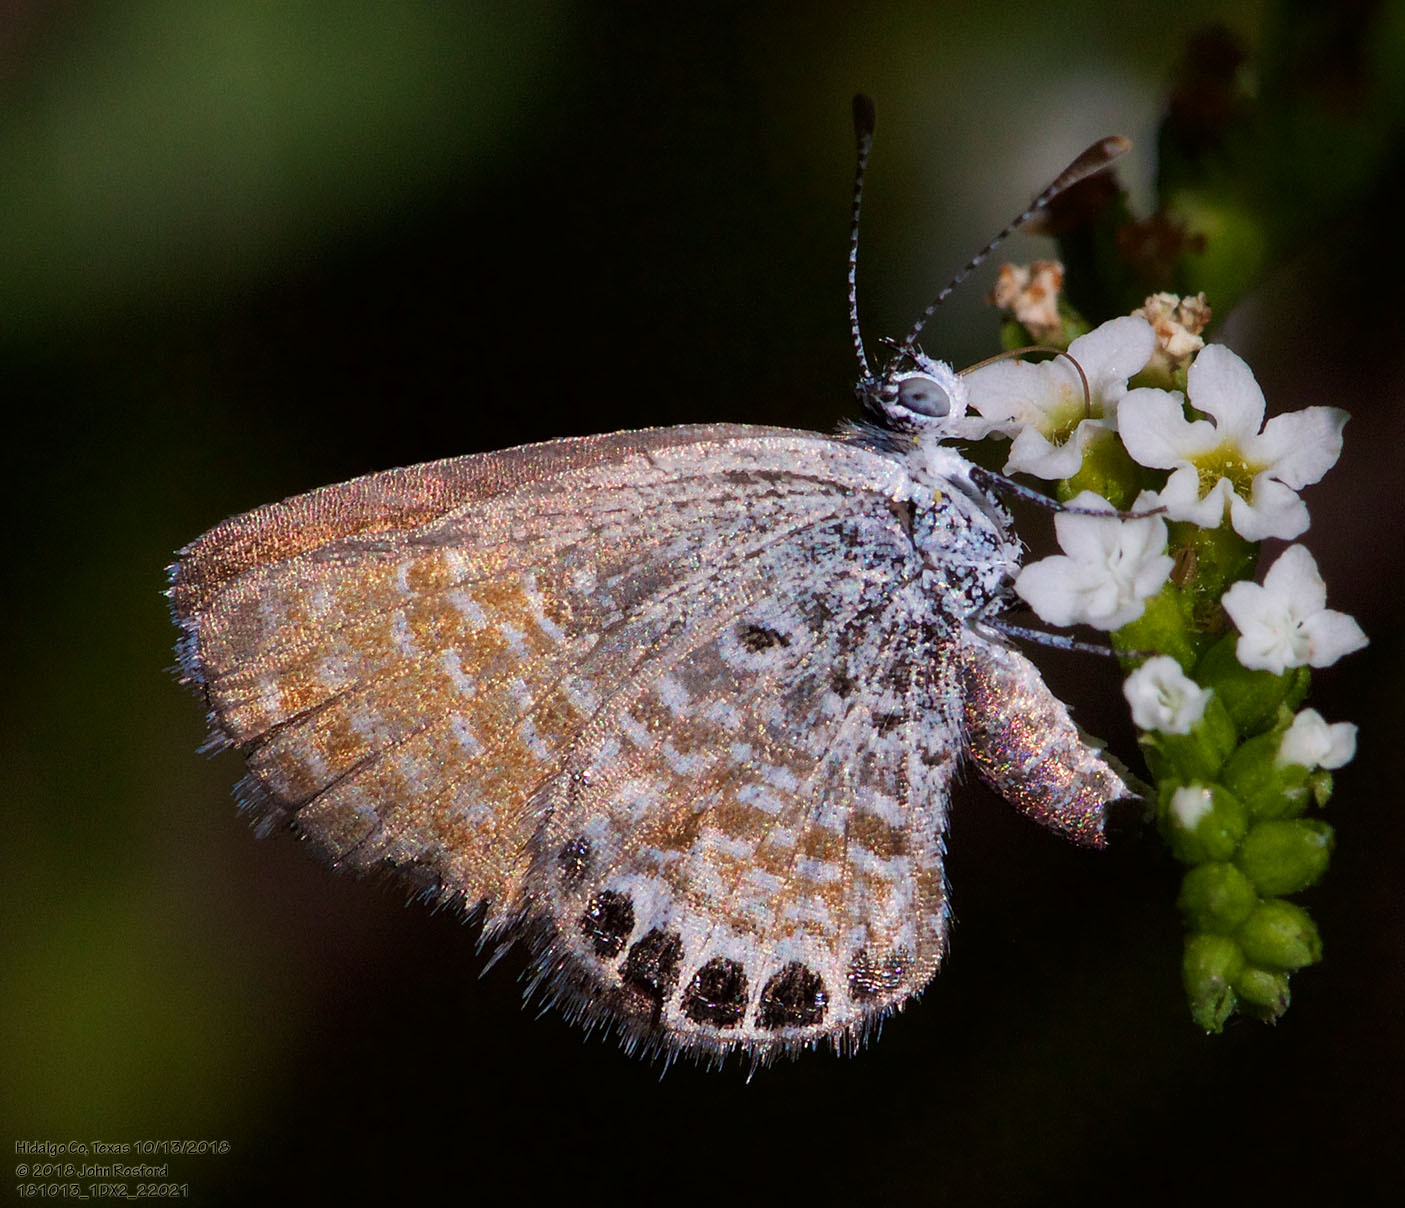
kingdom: Animalia
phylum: Arthropoda
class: Insecta
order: Lepidoptera
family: Lycaenidae
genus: Brephidium
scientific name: Brephidium exilis
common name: Pygmy blue
